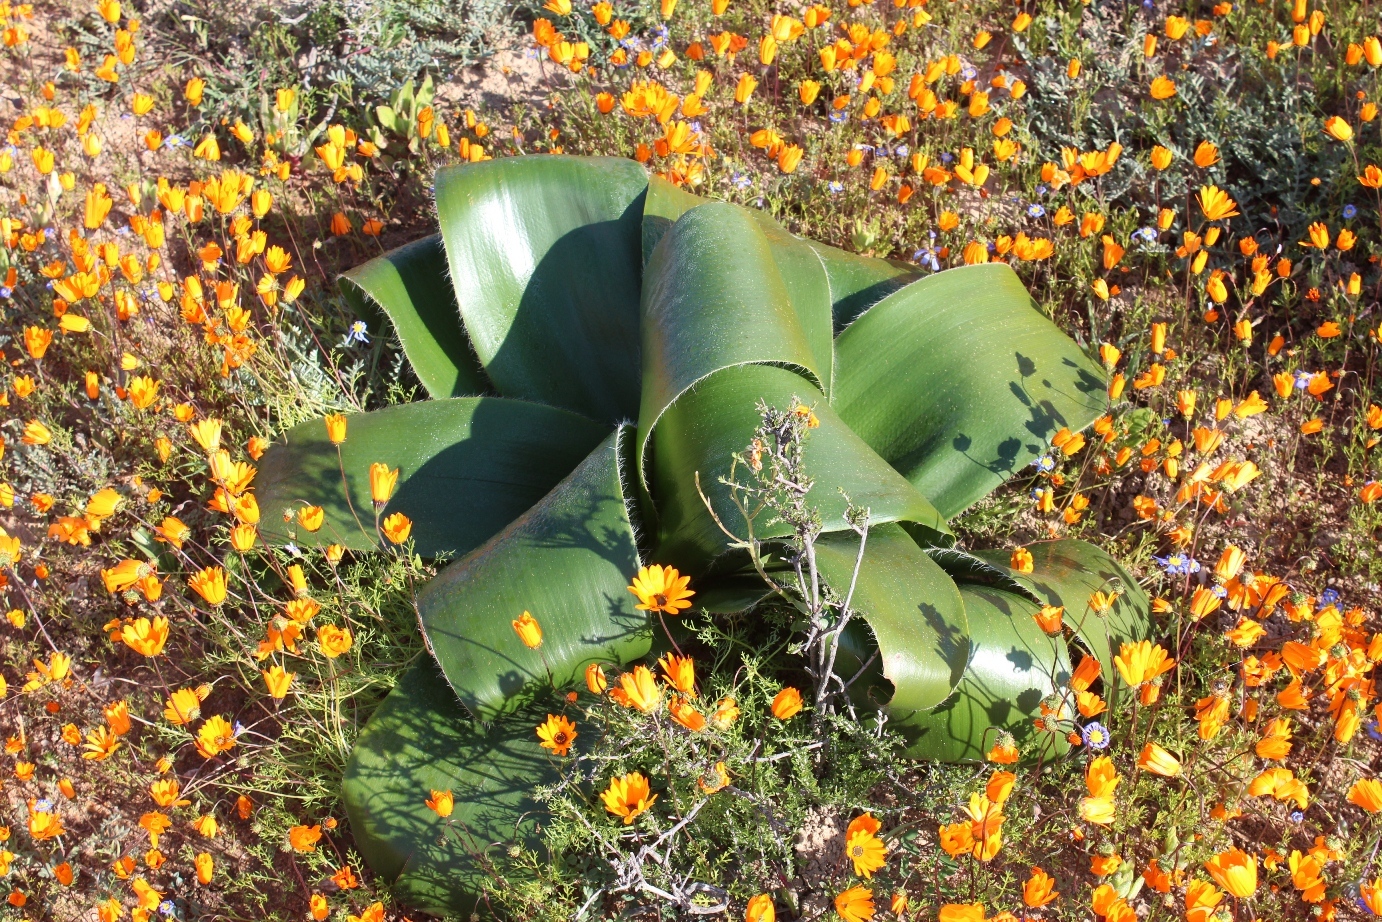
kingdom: Plantae
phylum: Tracheophyta
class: Liliopsida
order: Asparagales
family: Amaryllidaceae
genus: Brunsvigia
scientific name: Brunsvigia bosmaniae
